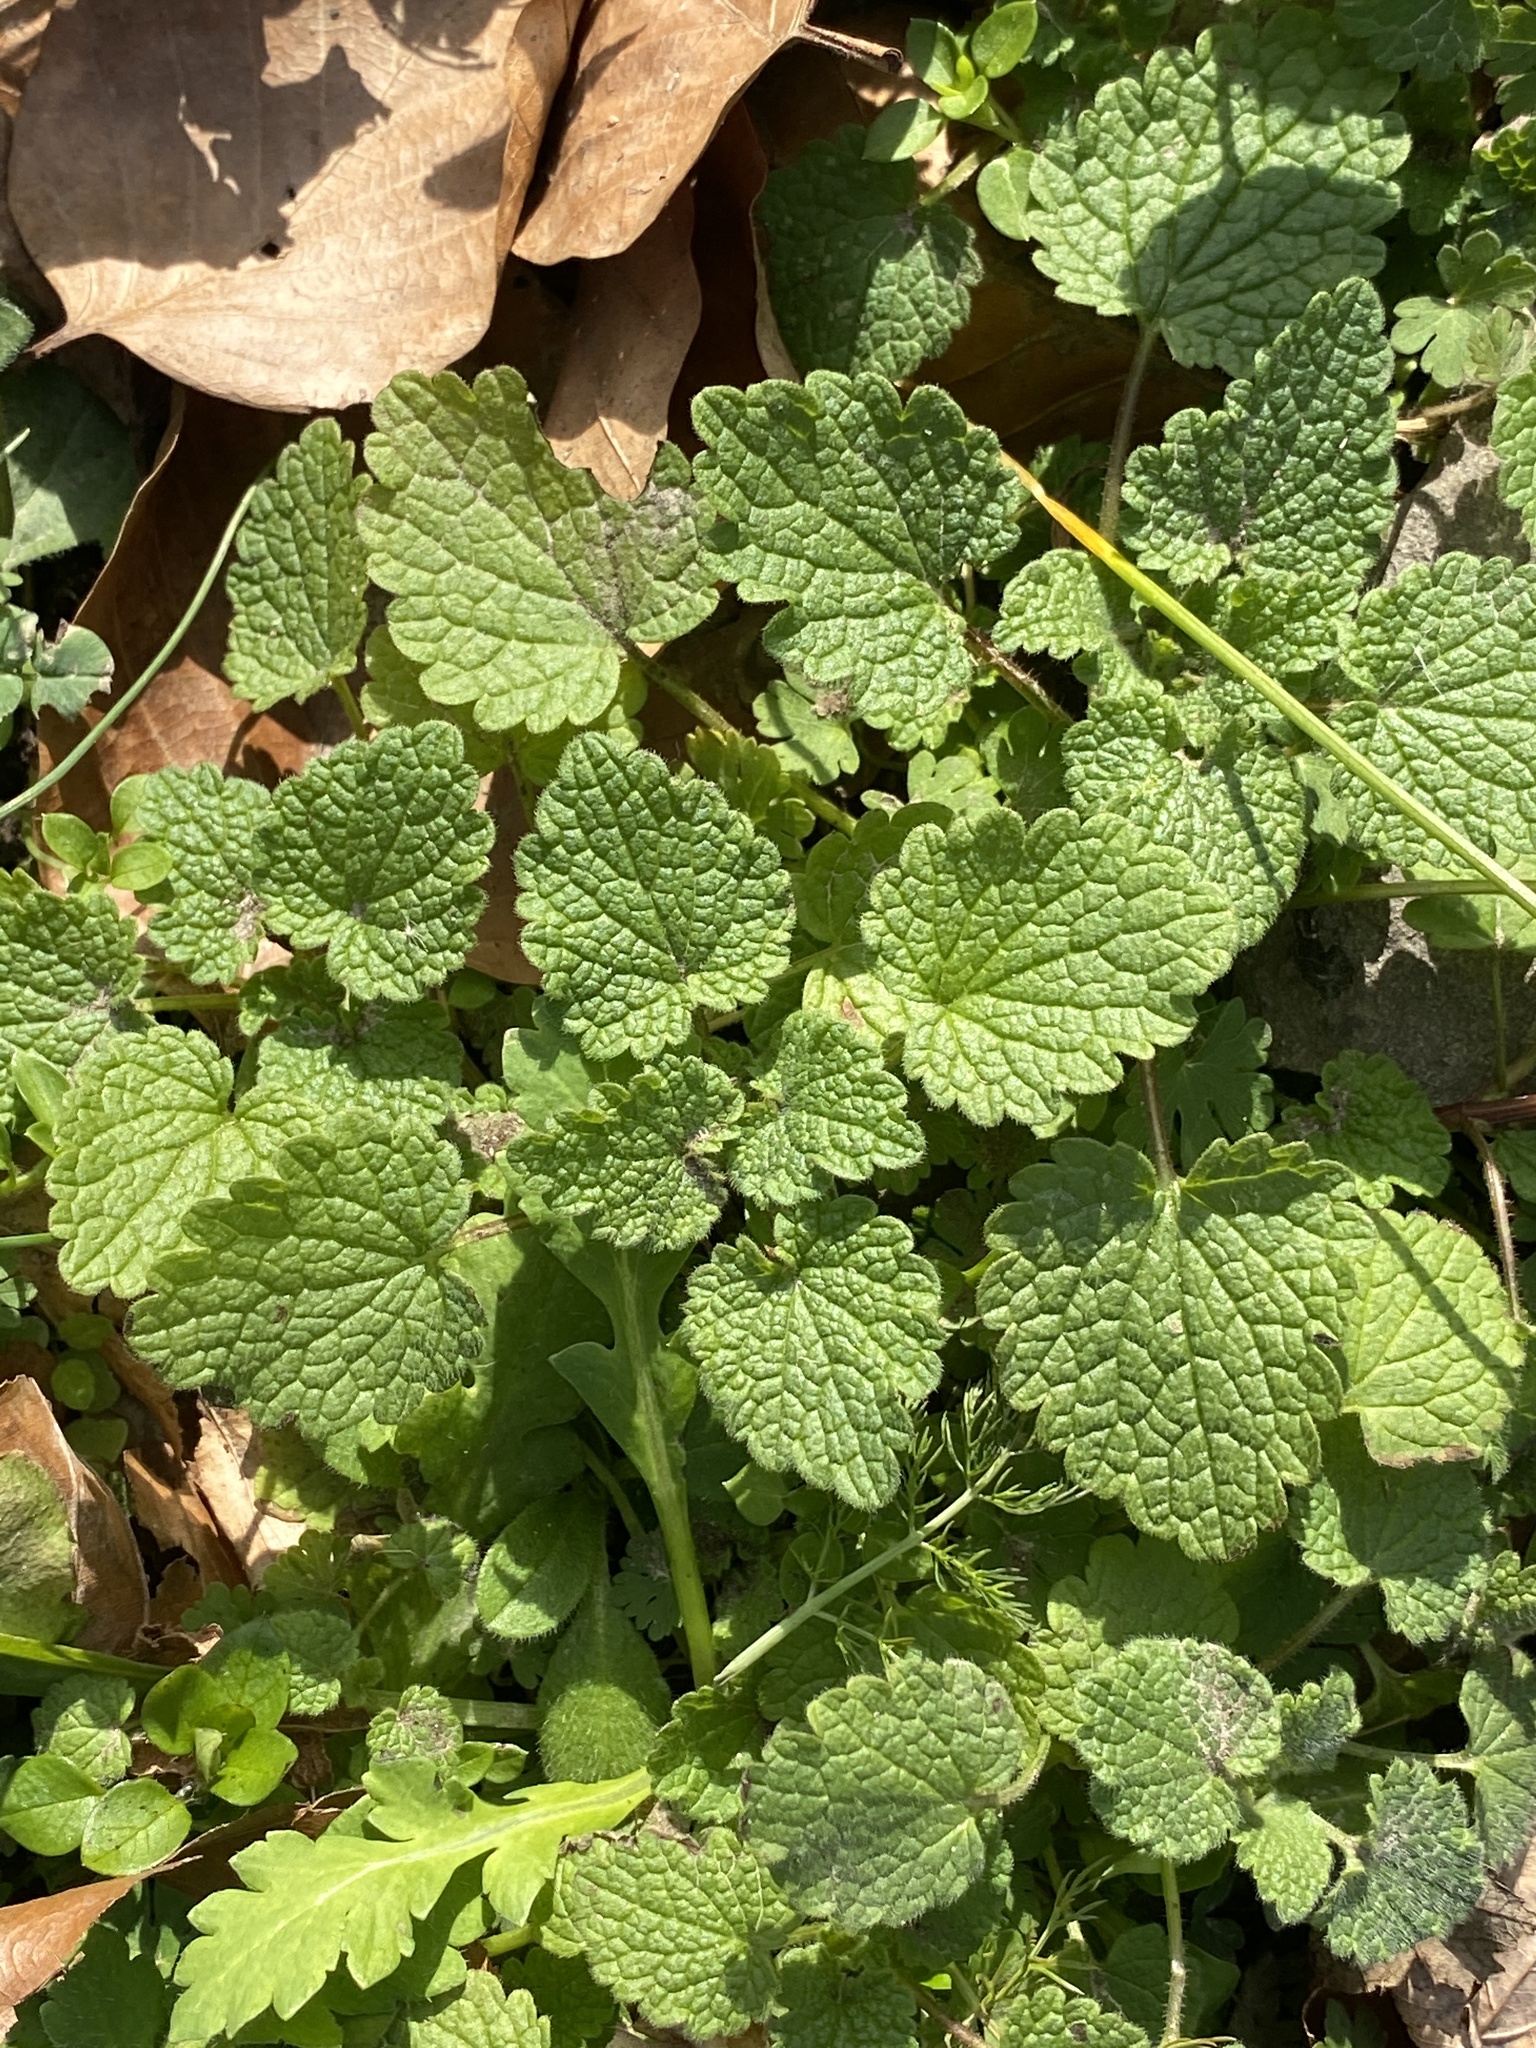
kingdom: Plantae
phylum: Tracheophyta
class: Magnoliopsida
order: Lamiales
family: Lamiaceae
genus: Lamium
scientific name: Lamium purpureum
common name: Red dead-nettle
